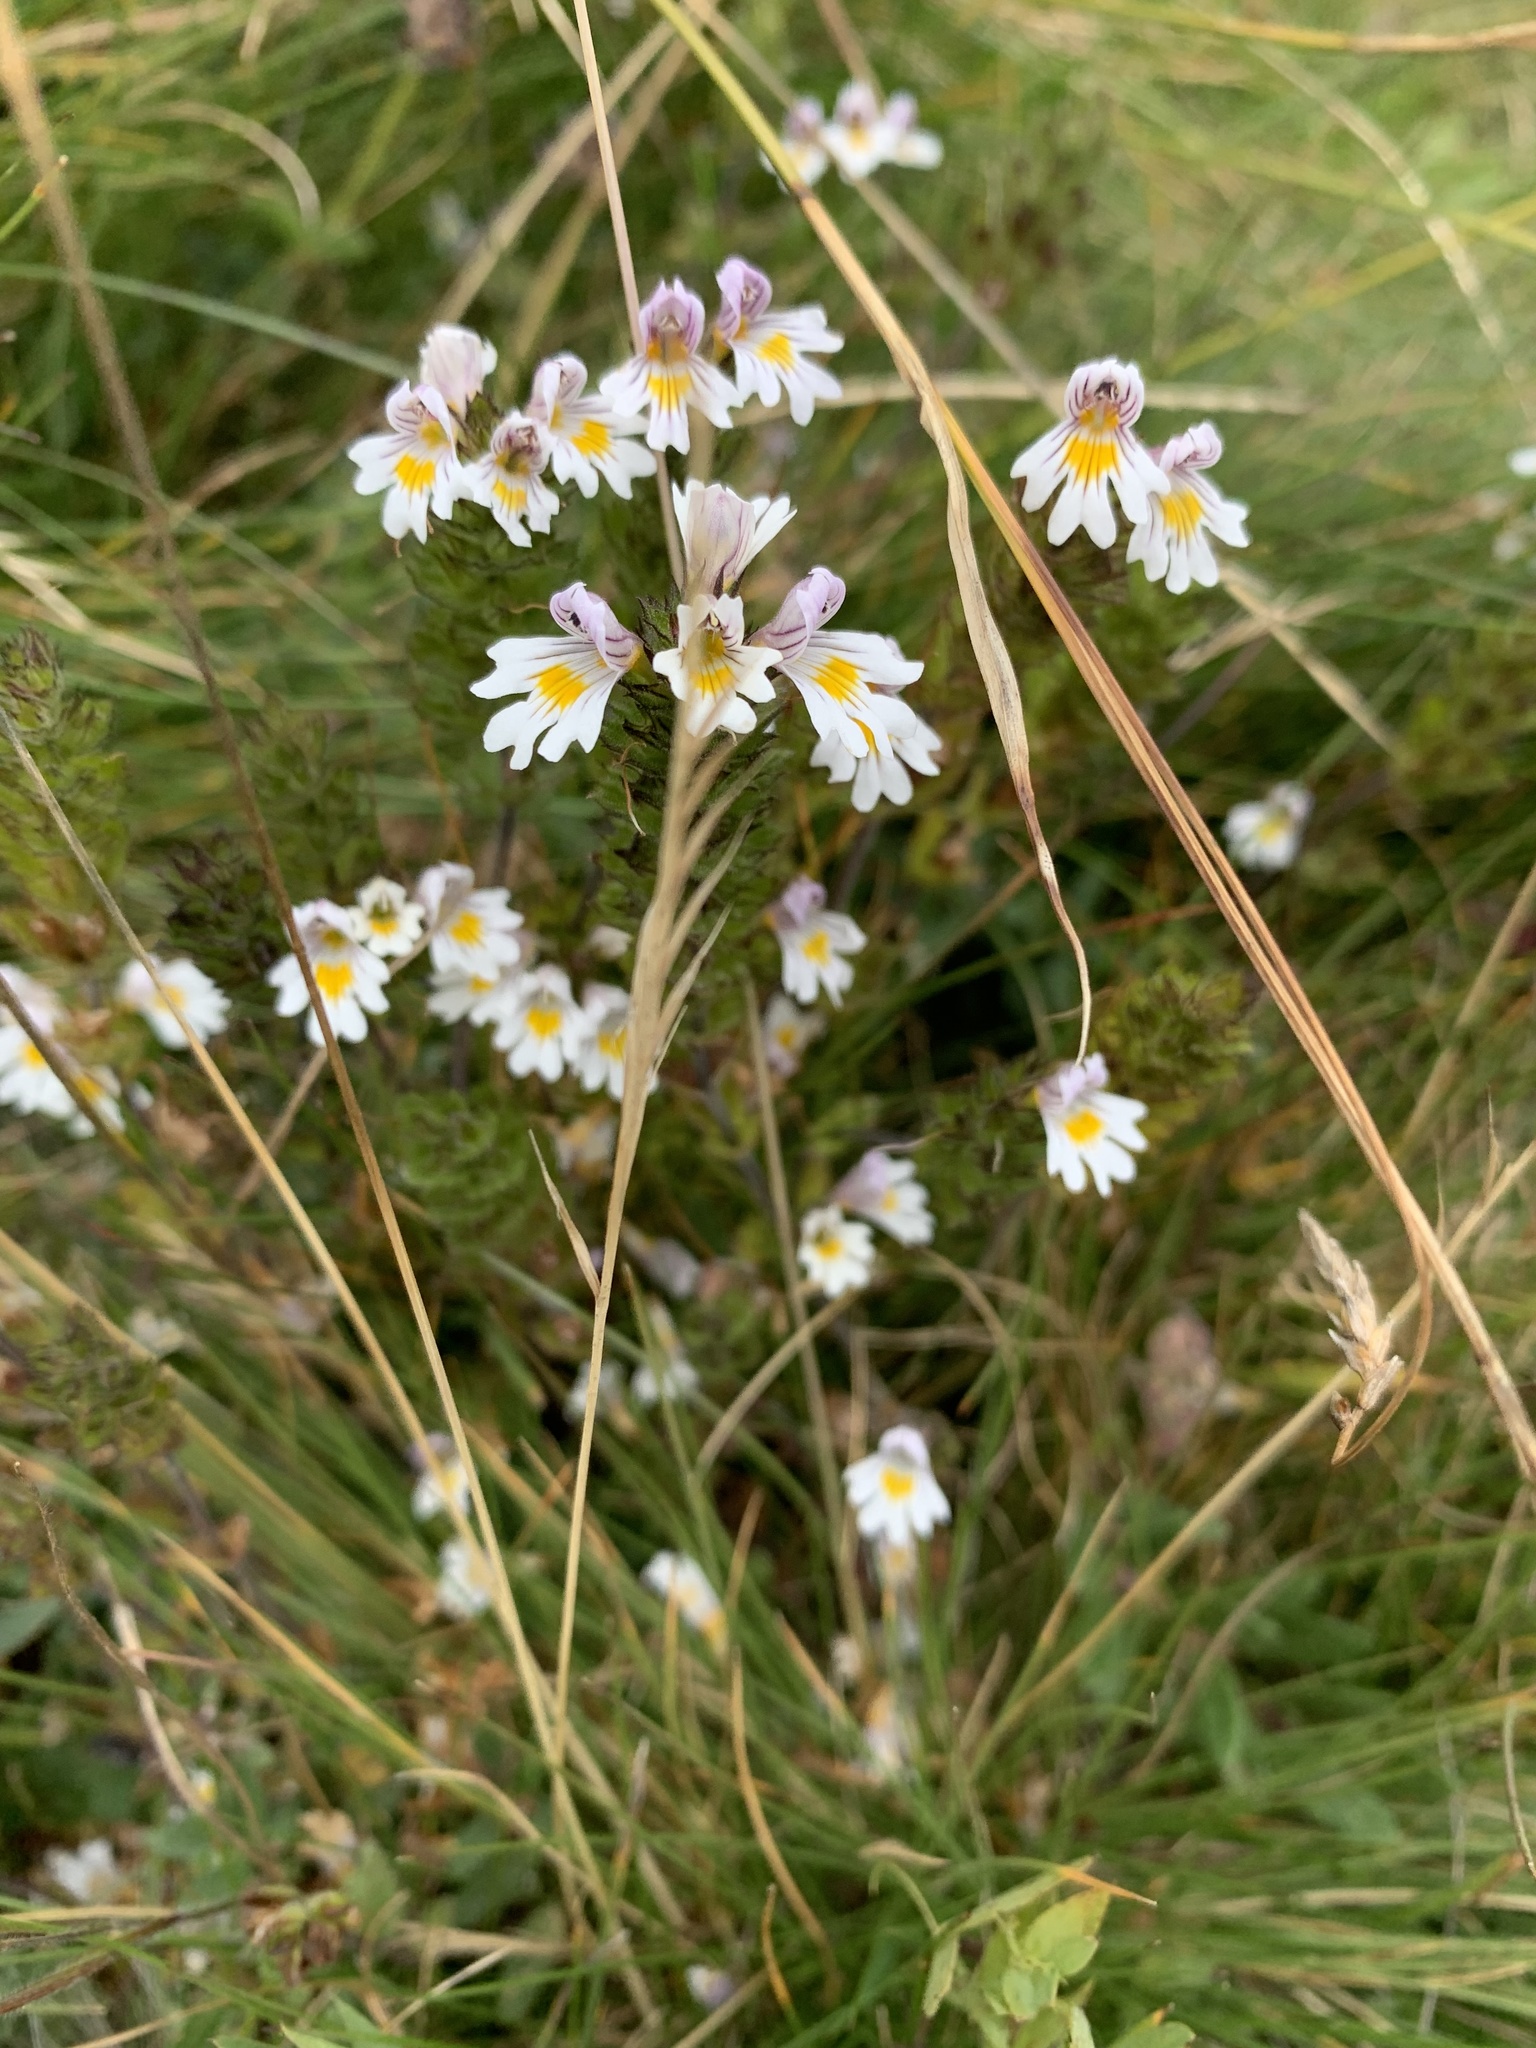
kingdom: Plantae
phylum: Tracheophyta
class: Magnoliopsida
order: Lamiales
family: Orobanchaceae
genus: Euphrasia
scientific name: Euphrasia officinalis
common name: Eyebright
